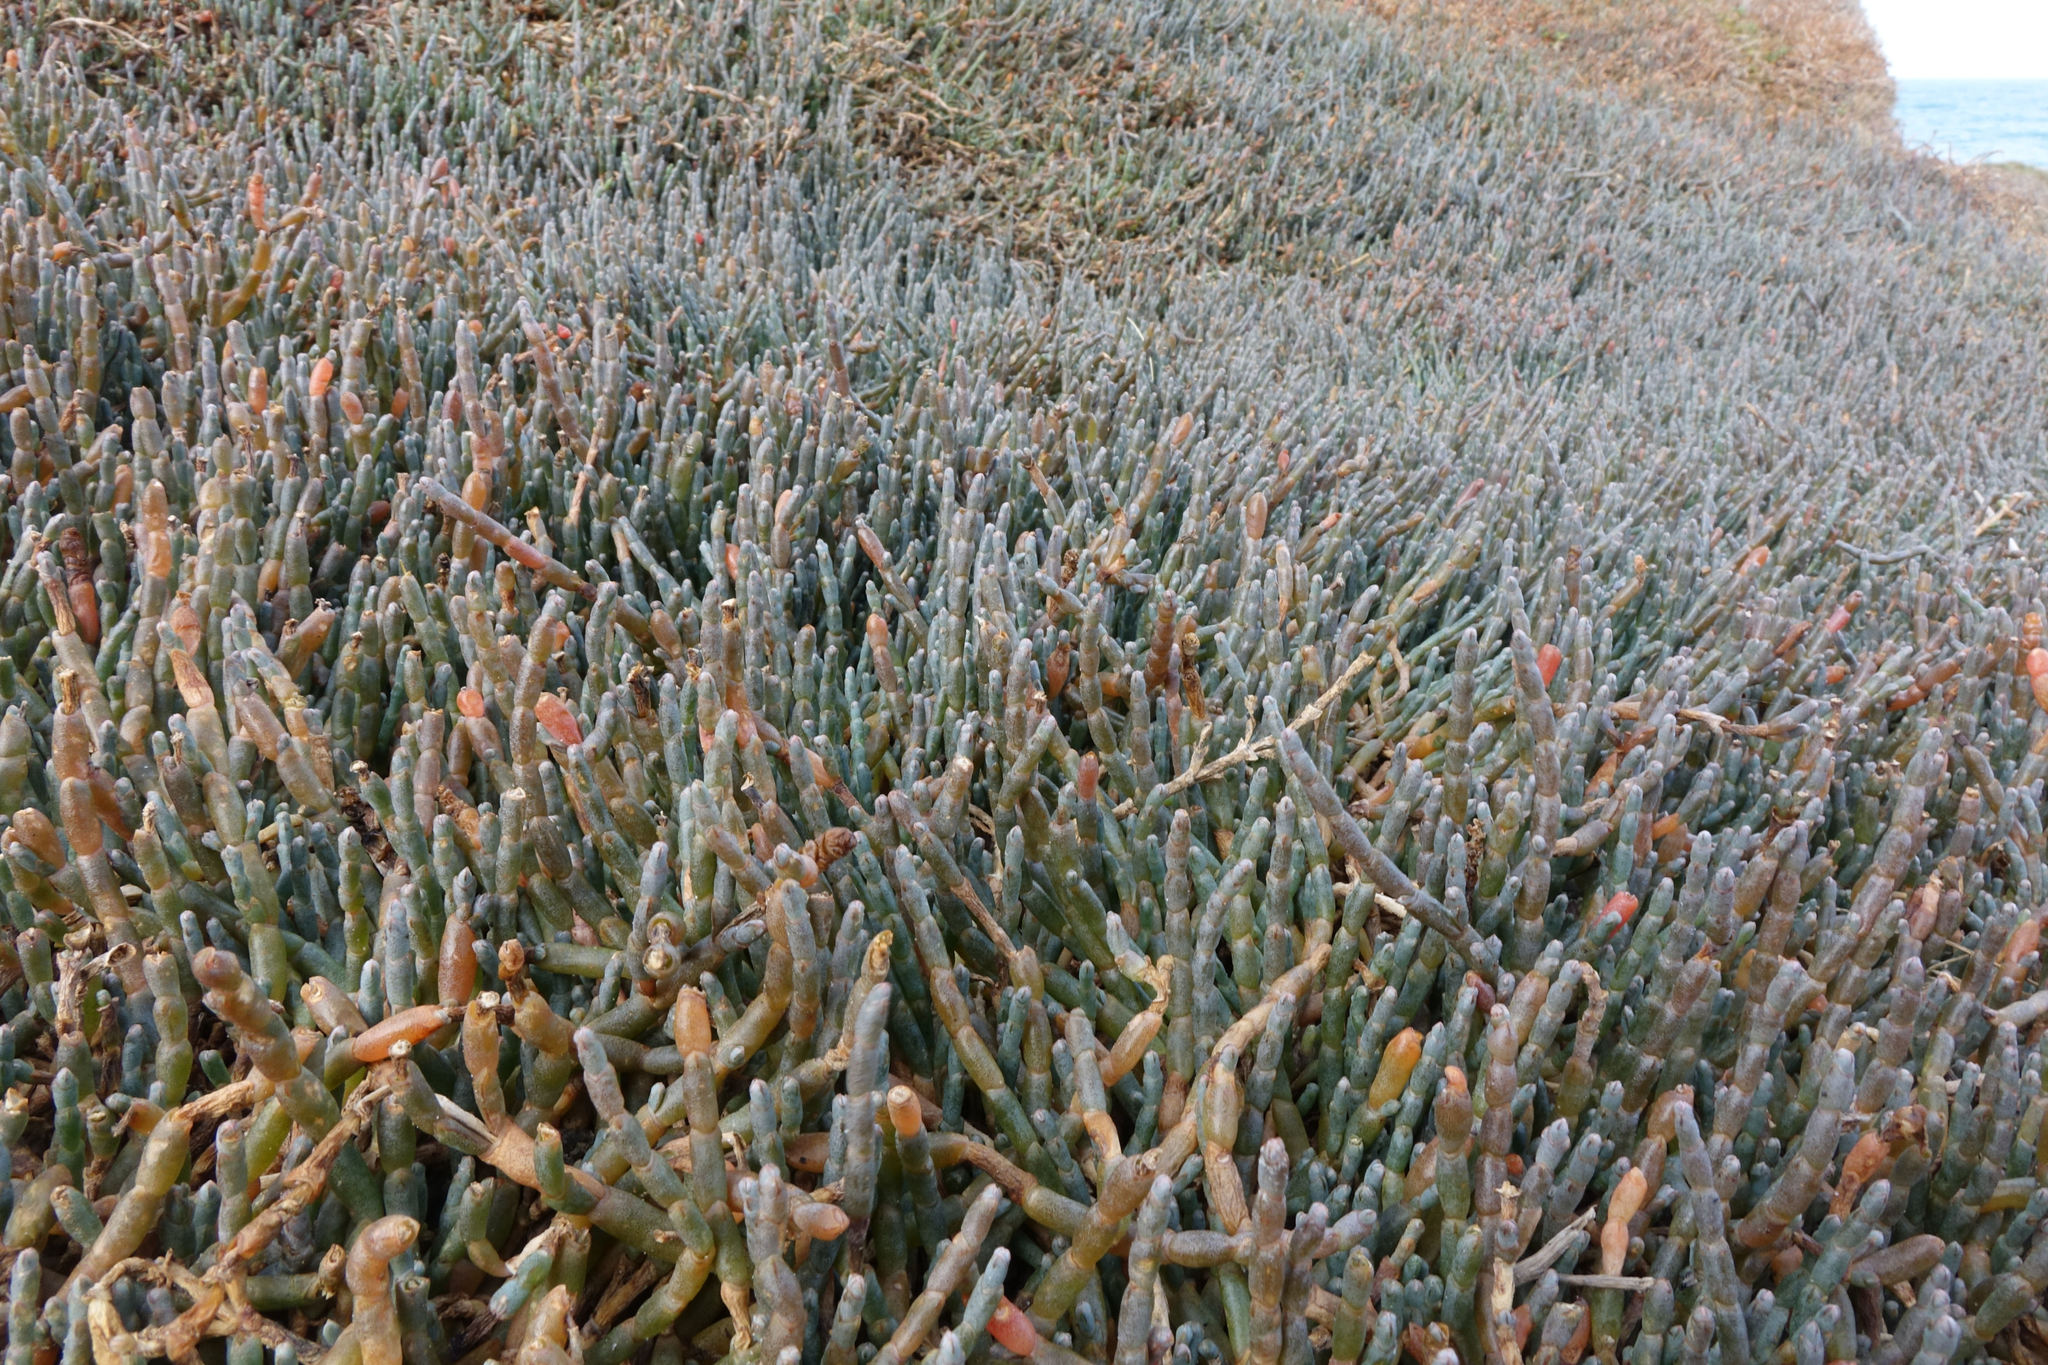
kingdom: Plantae
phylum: Tracheophyta
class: Magnoliopsida
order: Caryophyllales
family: Amaranthaceae
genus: Salicornia
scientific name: Salicornia quinqueflora
